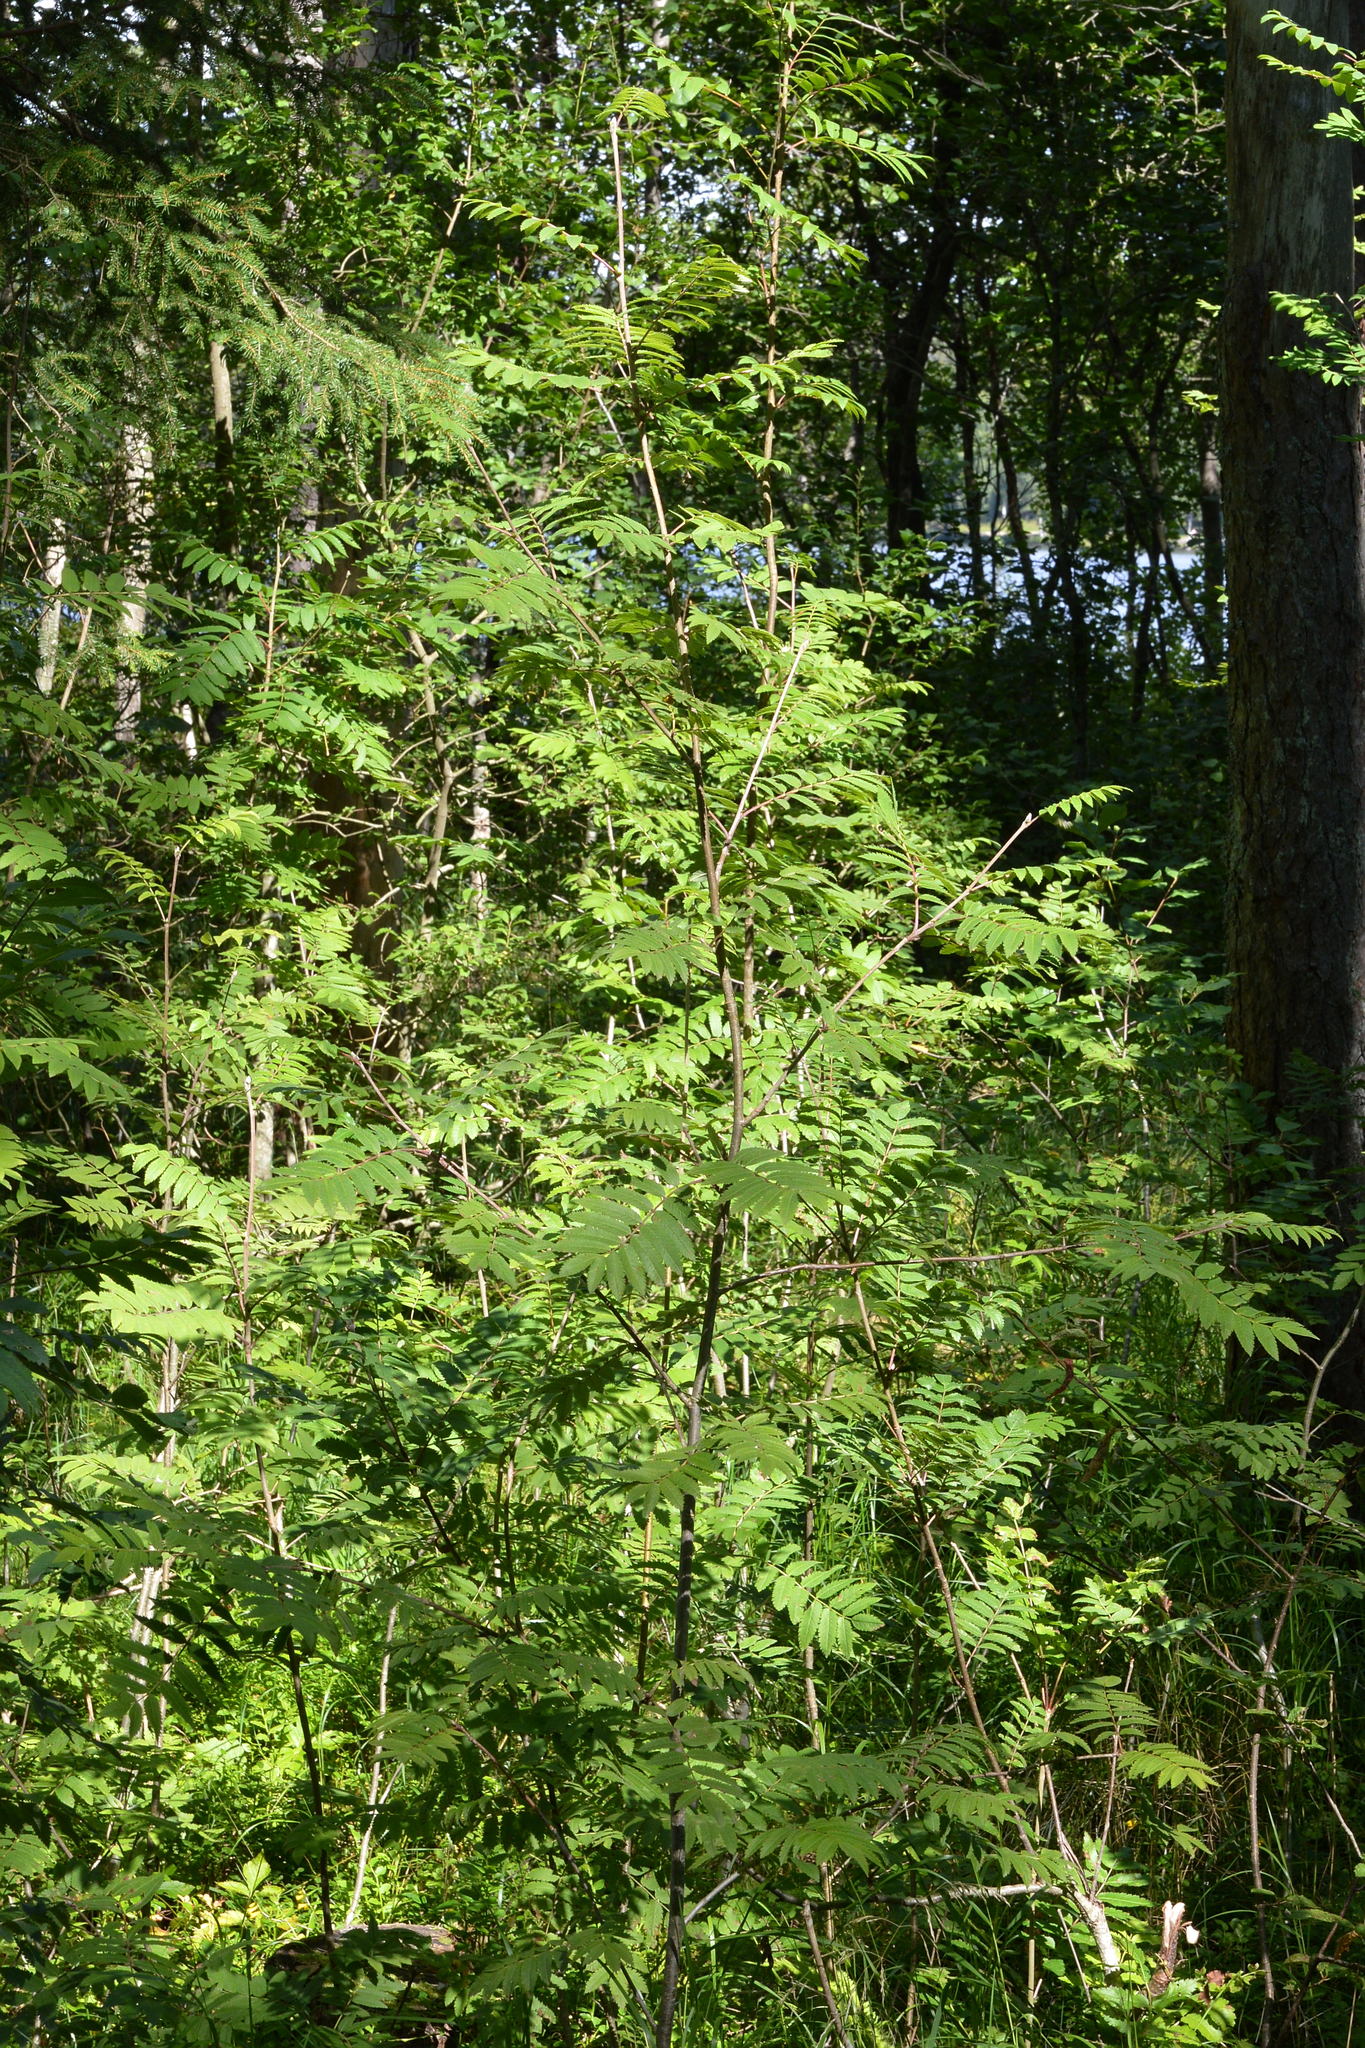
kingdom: Plantae
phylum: Tracheophyta
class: Magnoliopsida
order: Rosales
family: Rosaceae
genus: Sorbus
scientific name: Sorbus aucuparia
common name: Rowan
